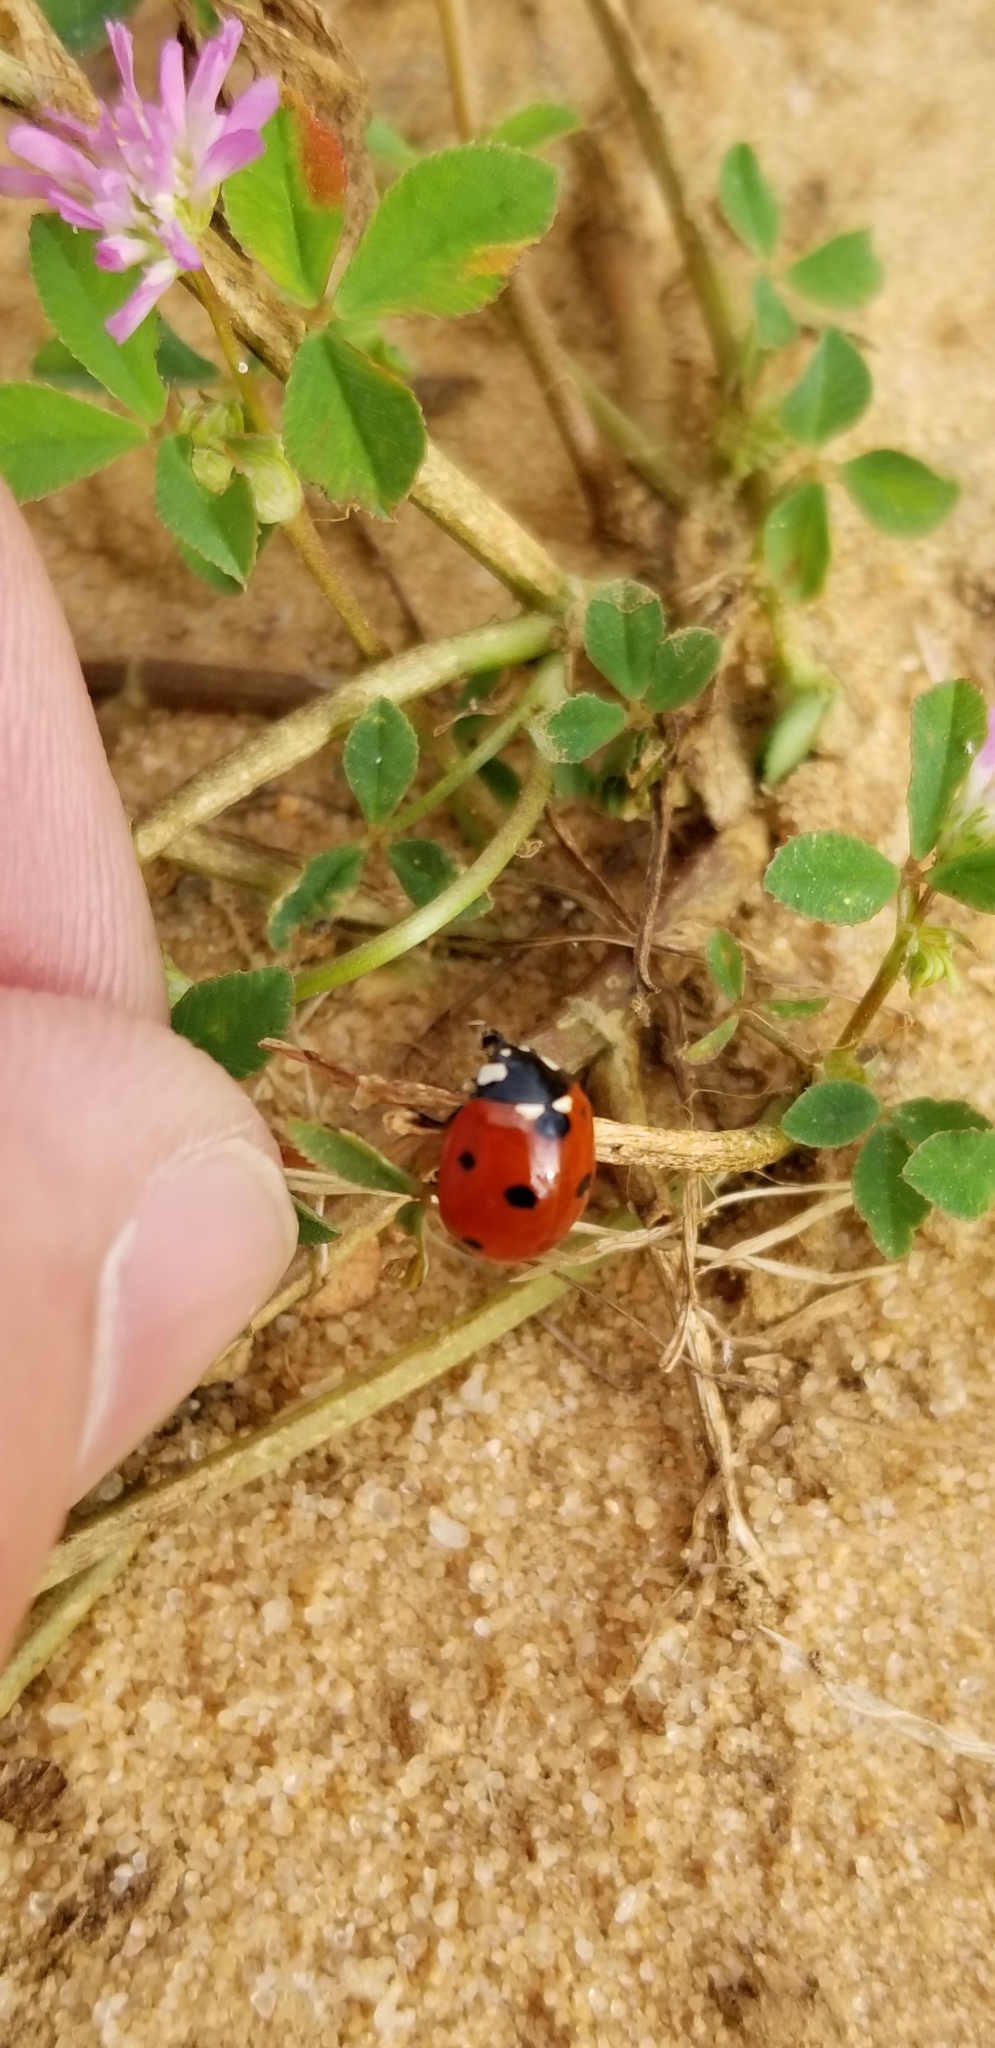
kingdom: Animalia
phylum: Arthropoda
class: Insecta
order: Coleoptera
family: Coccinellidae
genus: Coccinella
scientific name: Coccinella septempunctata
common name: Sevenspotted lady beetle
